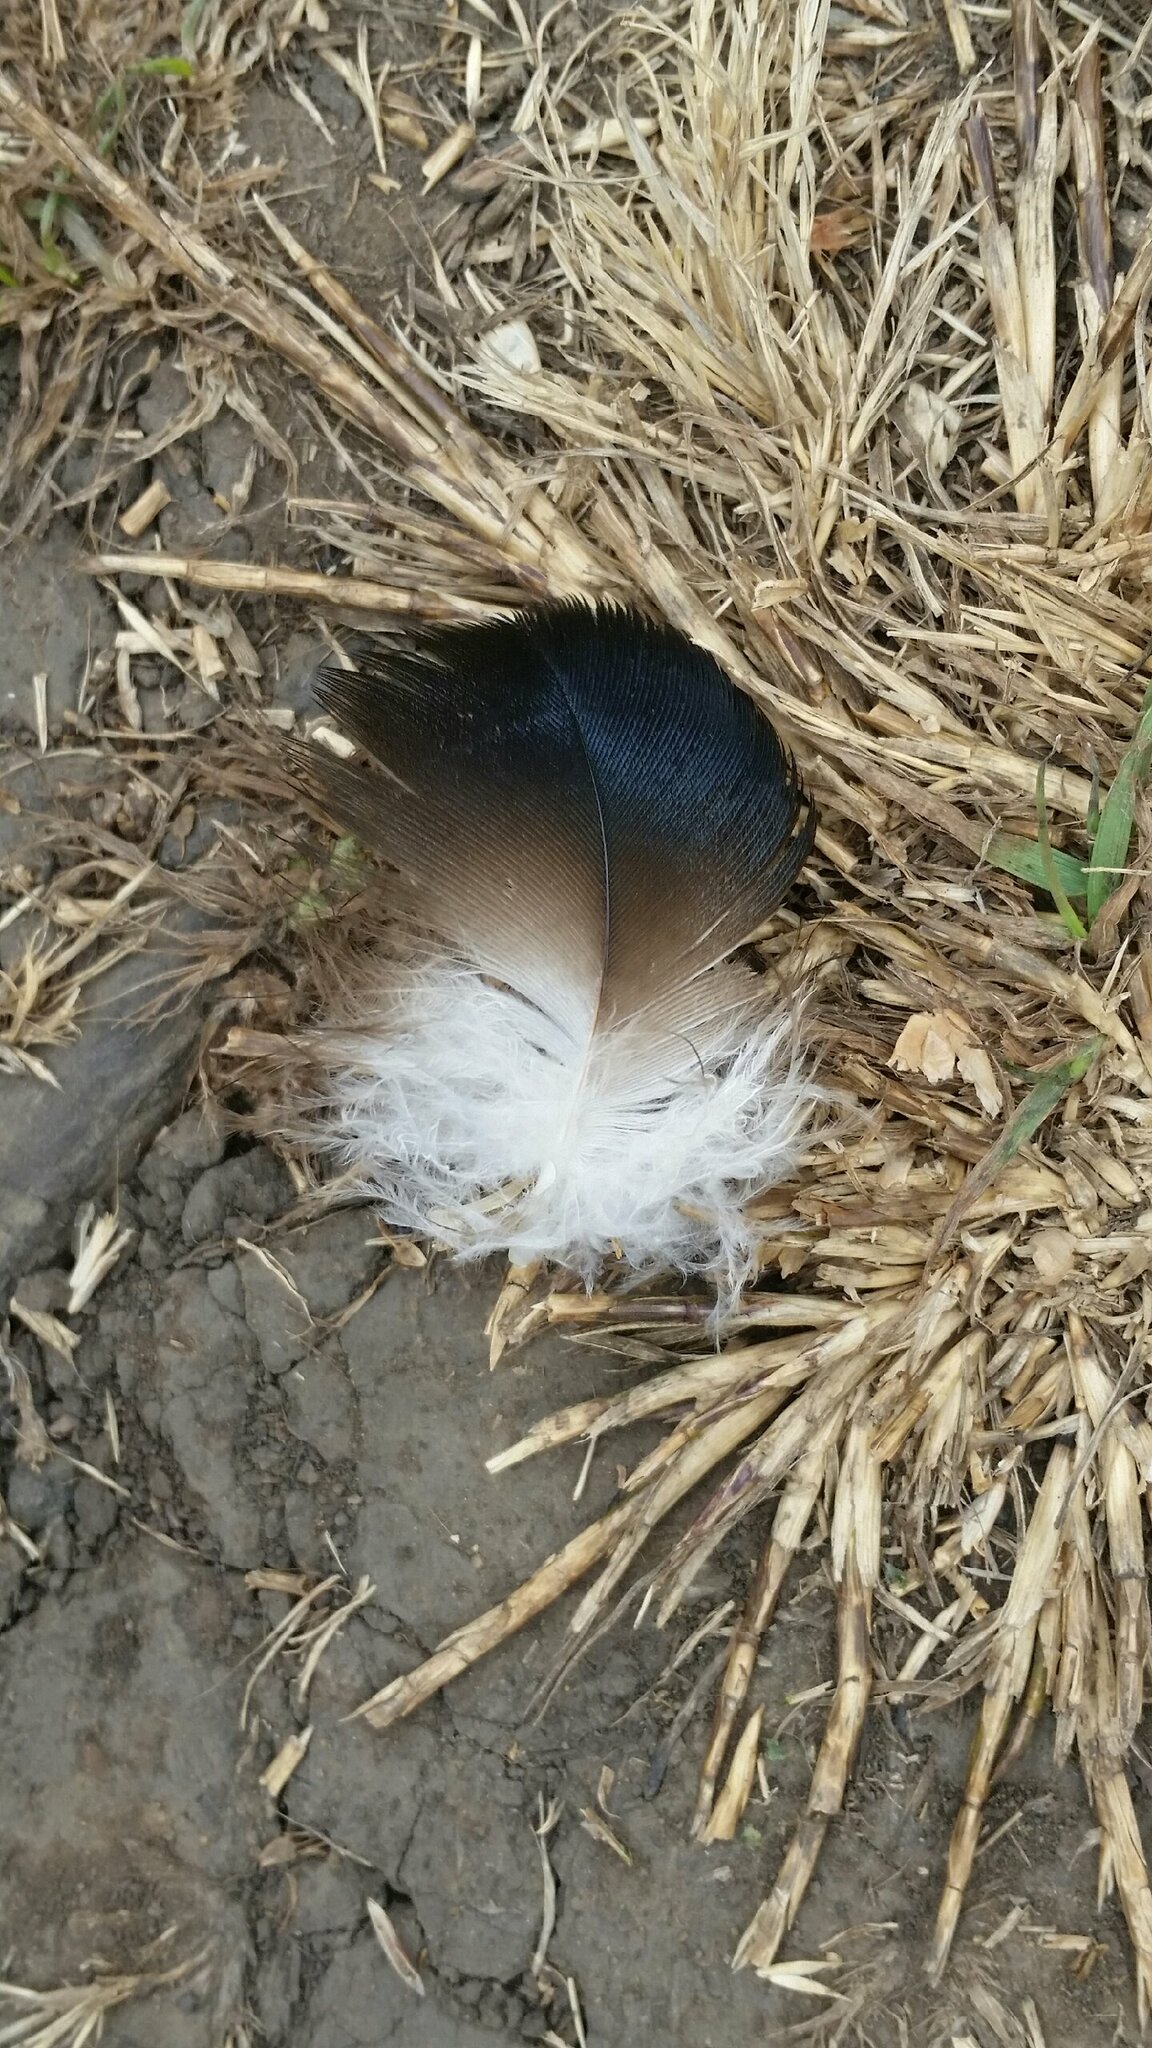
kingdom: Animalia
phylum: Chordata
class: Aves
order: Accipitriformes
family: Cathartidae
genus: Cathartes
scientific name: Cathartes aura
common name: Turkey vulture
